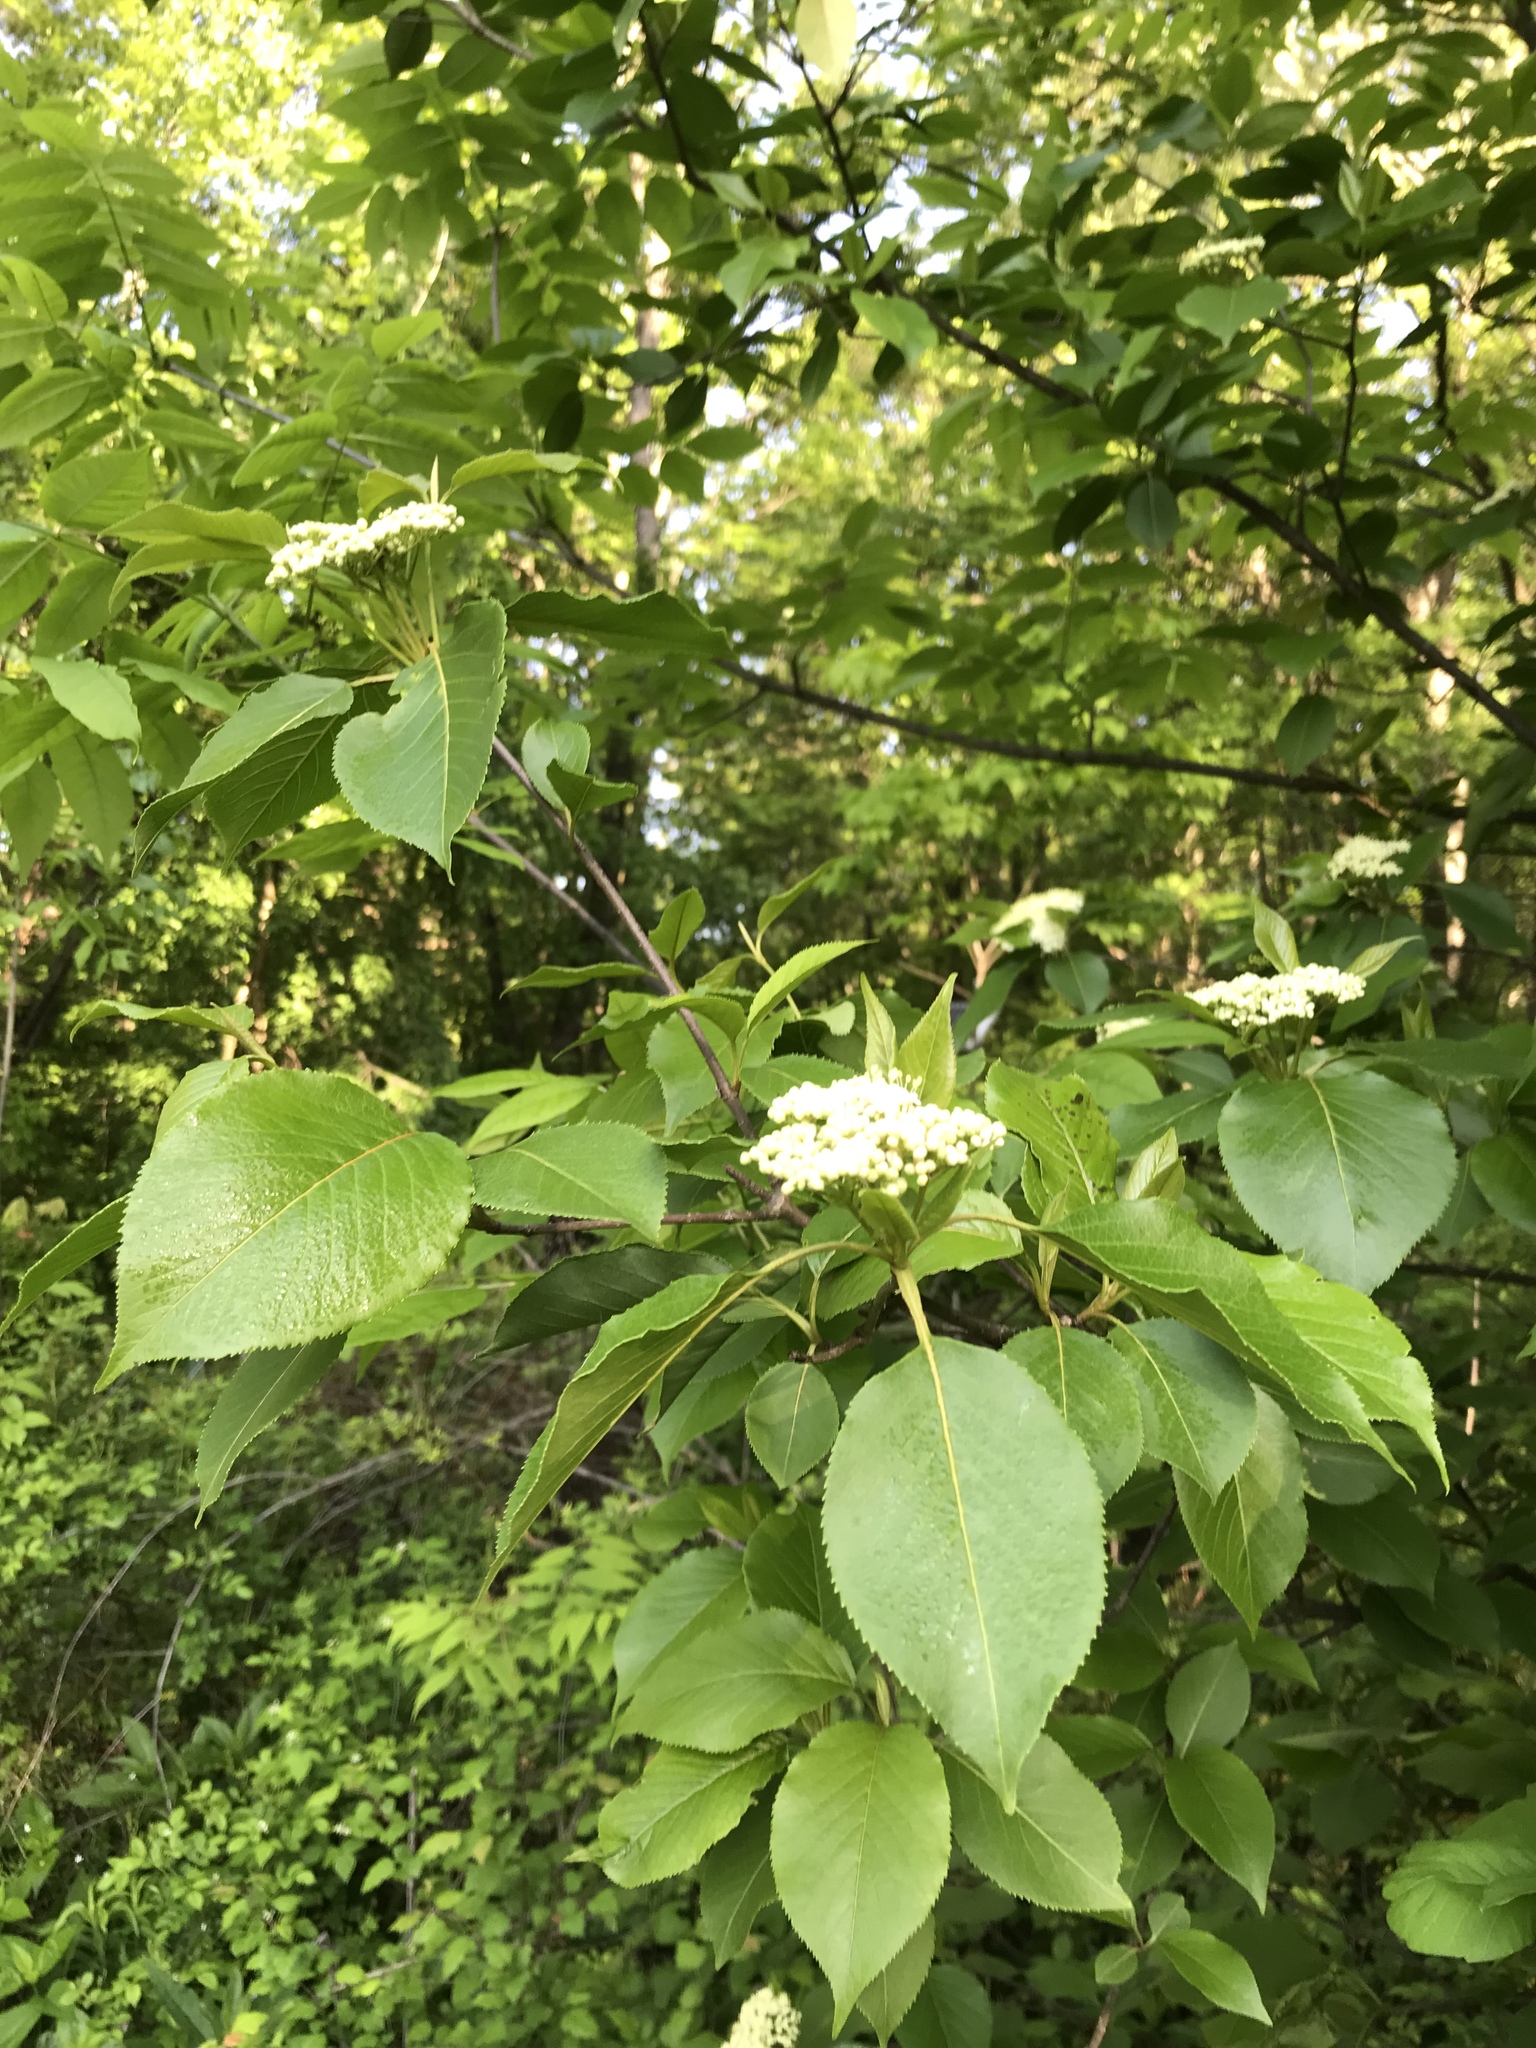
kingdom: Plantae
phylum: Tracheophyta
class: Magnoliopsida
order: Dipsacales
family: Viburnaceae
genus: Viburnum
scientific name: Viburnum lentago
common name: Black haw
